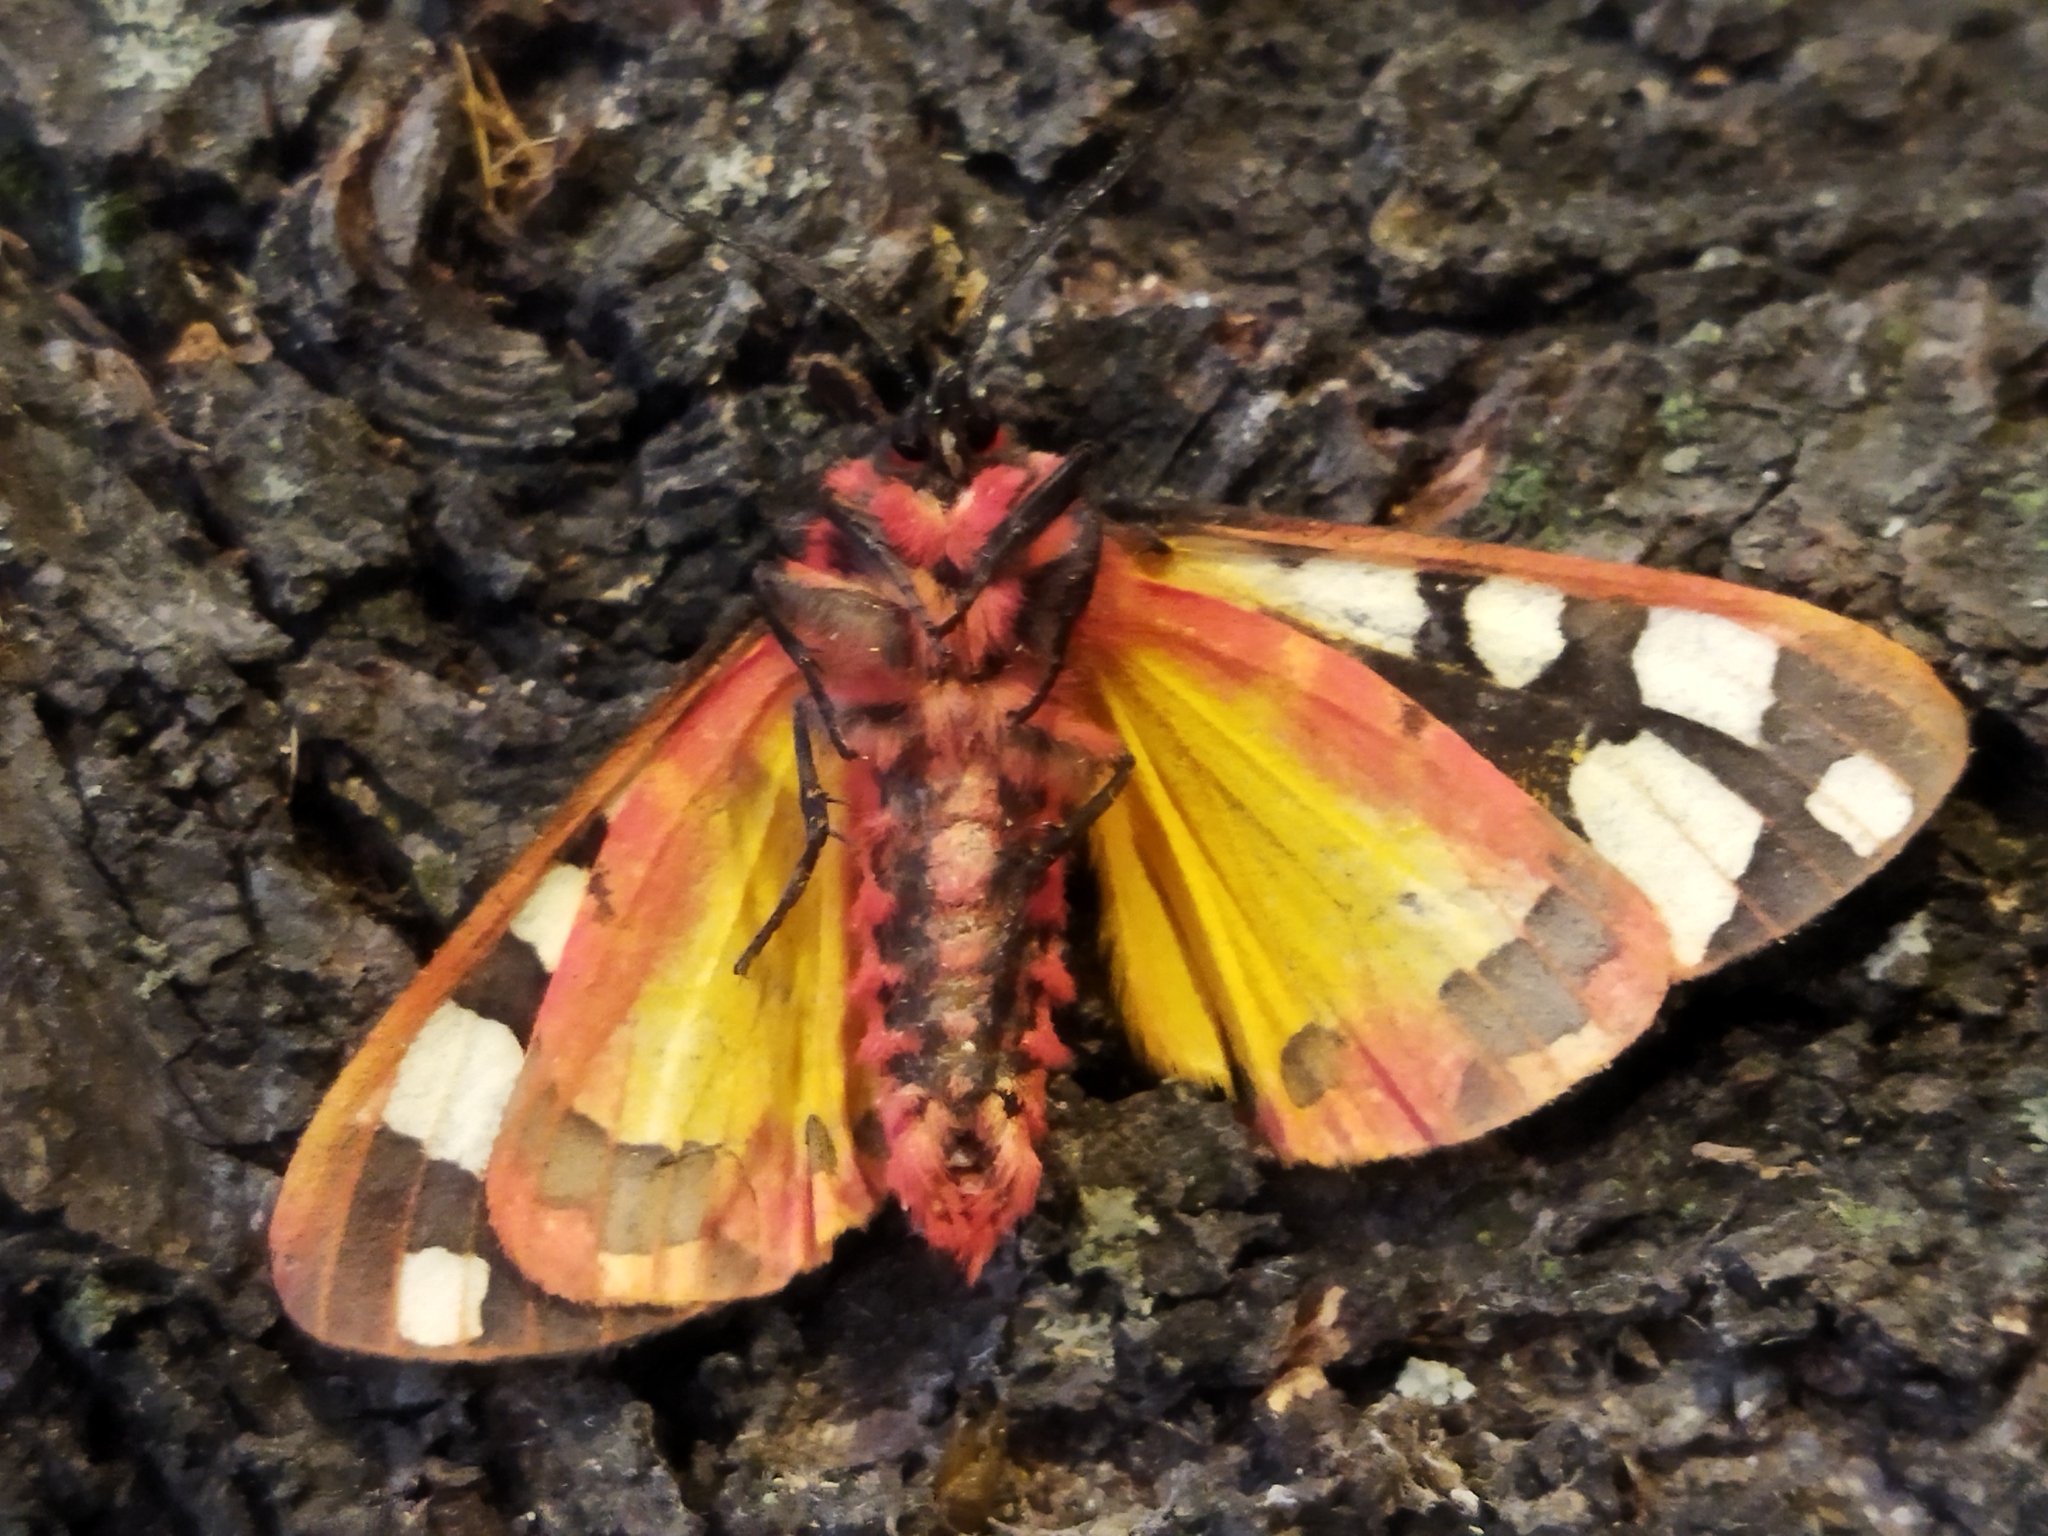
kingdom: Animalia
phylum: Arthropoda
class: Insecta
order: Lepidoptera
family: Erebidae
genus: Epicallia
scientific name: Epicallia villica
